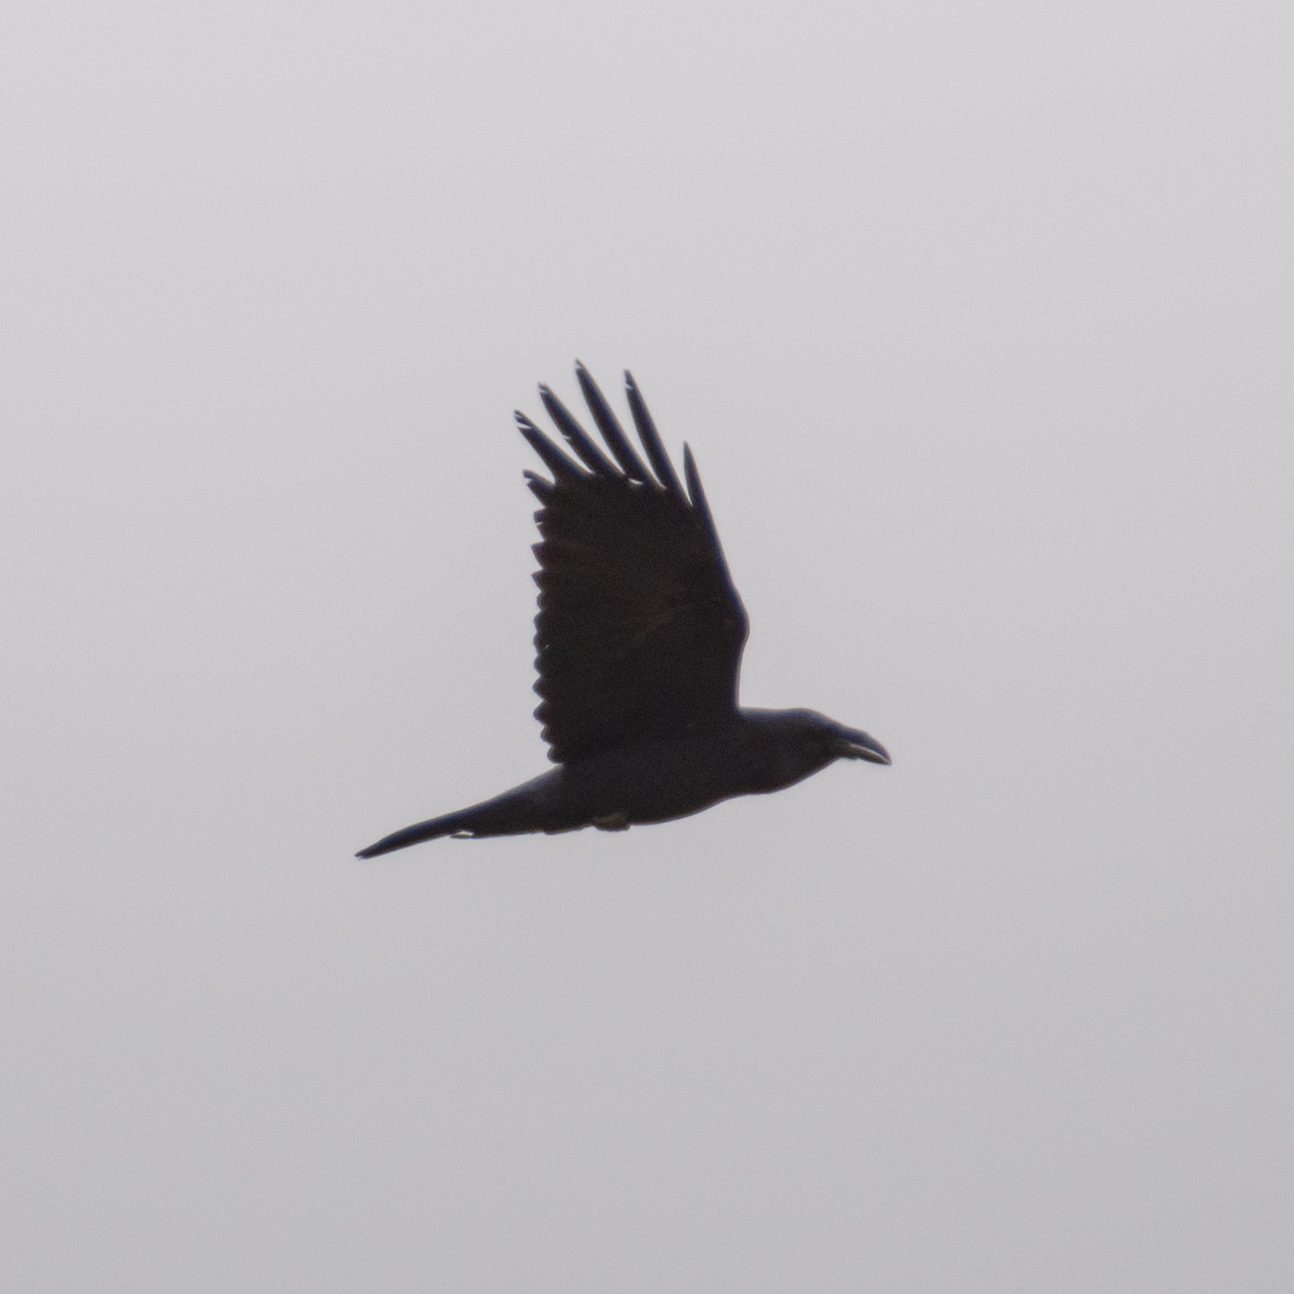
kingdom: Animalia
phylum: Chordata
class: Aves
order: Passeriformes
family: Corvidae
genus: Corvus
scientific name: Corvus corax
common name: Common raven
